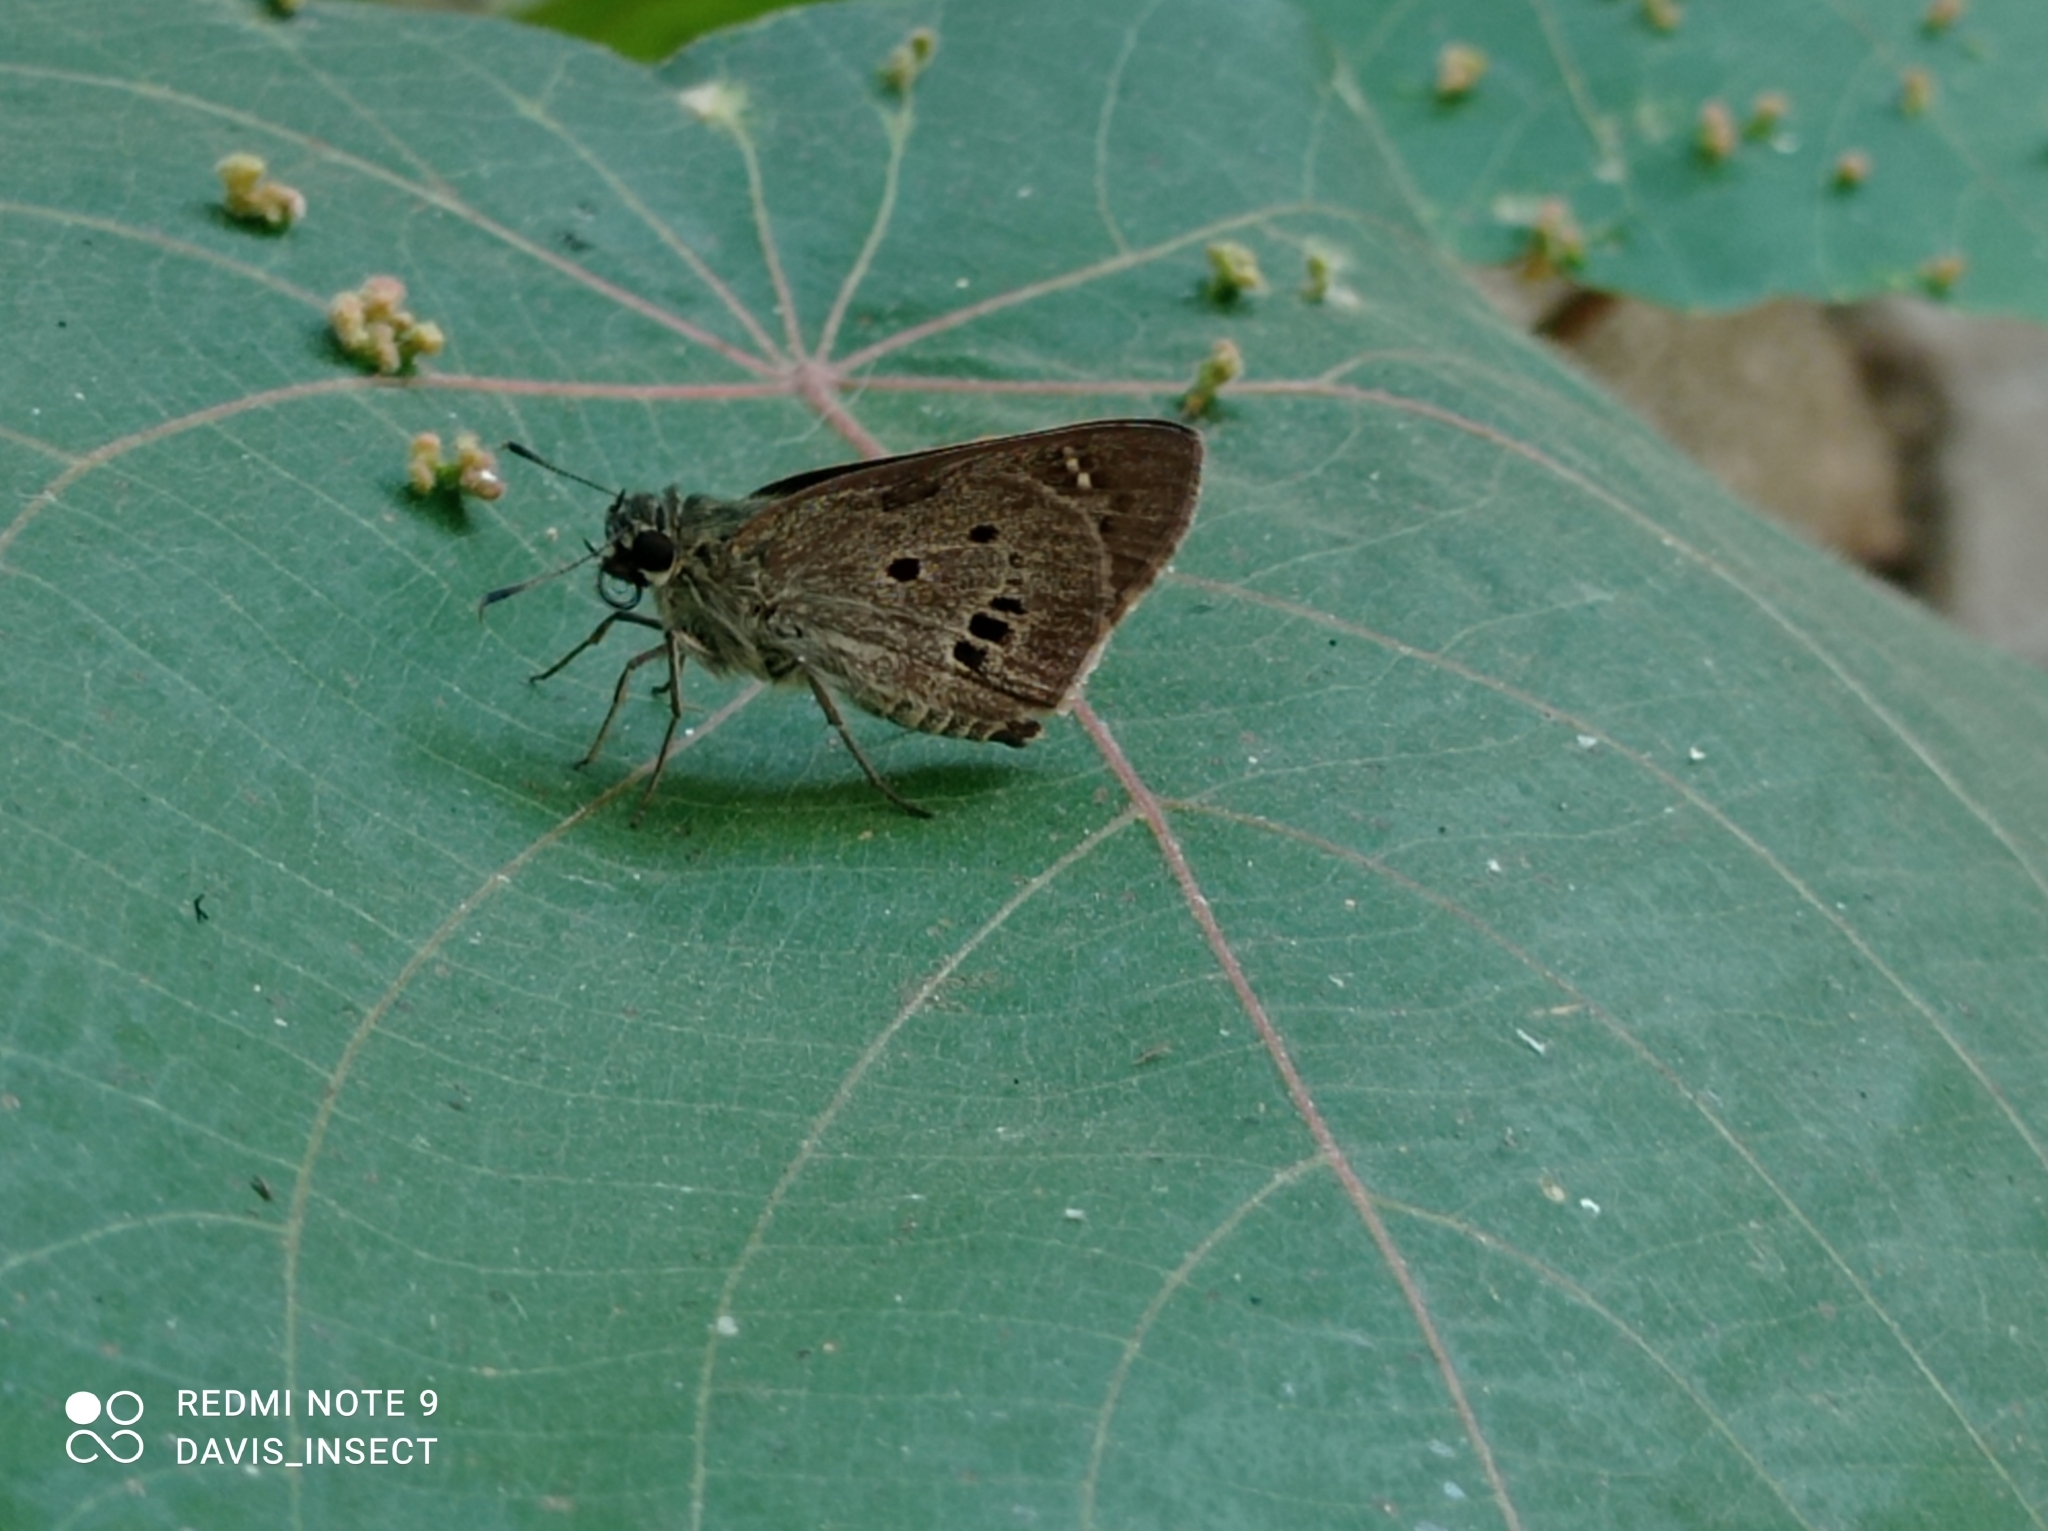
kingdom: Animalia
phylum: Arthropoda
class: Insecta
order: Lepidoptera
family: Hesperiidae
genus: Suastus
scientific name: Suastus gremius
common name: Indian palm bob
